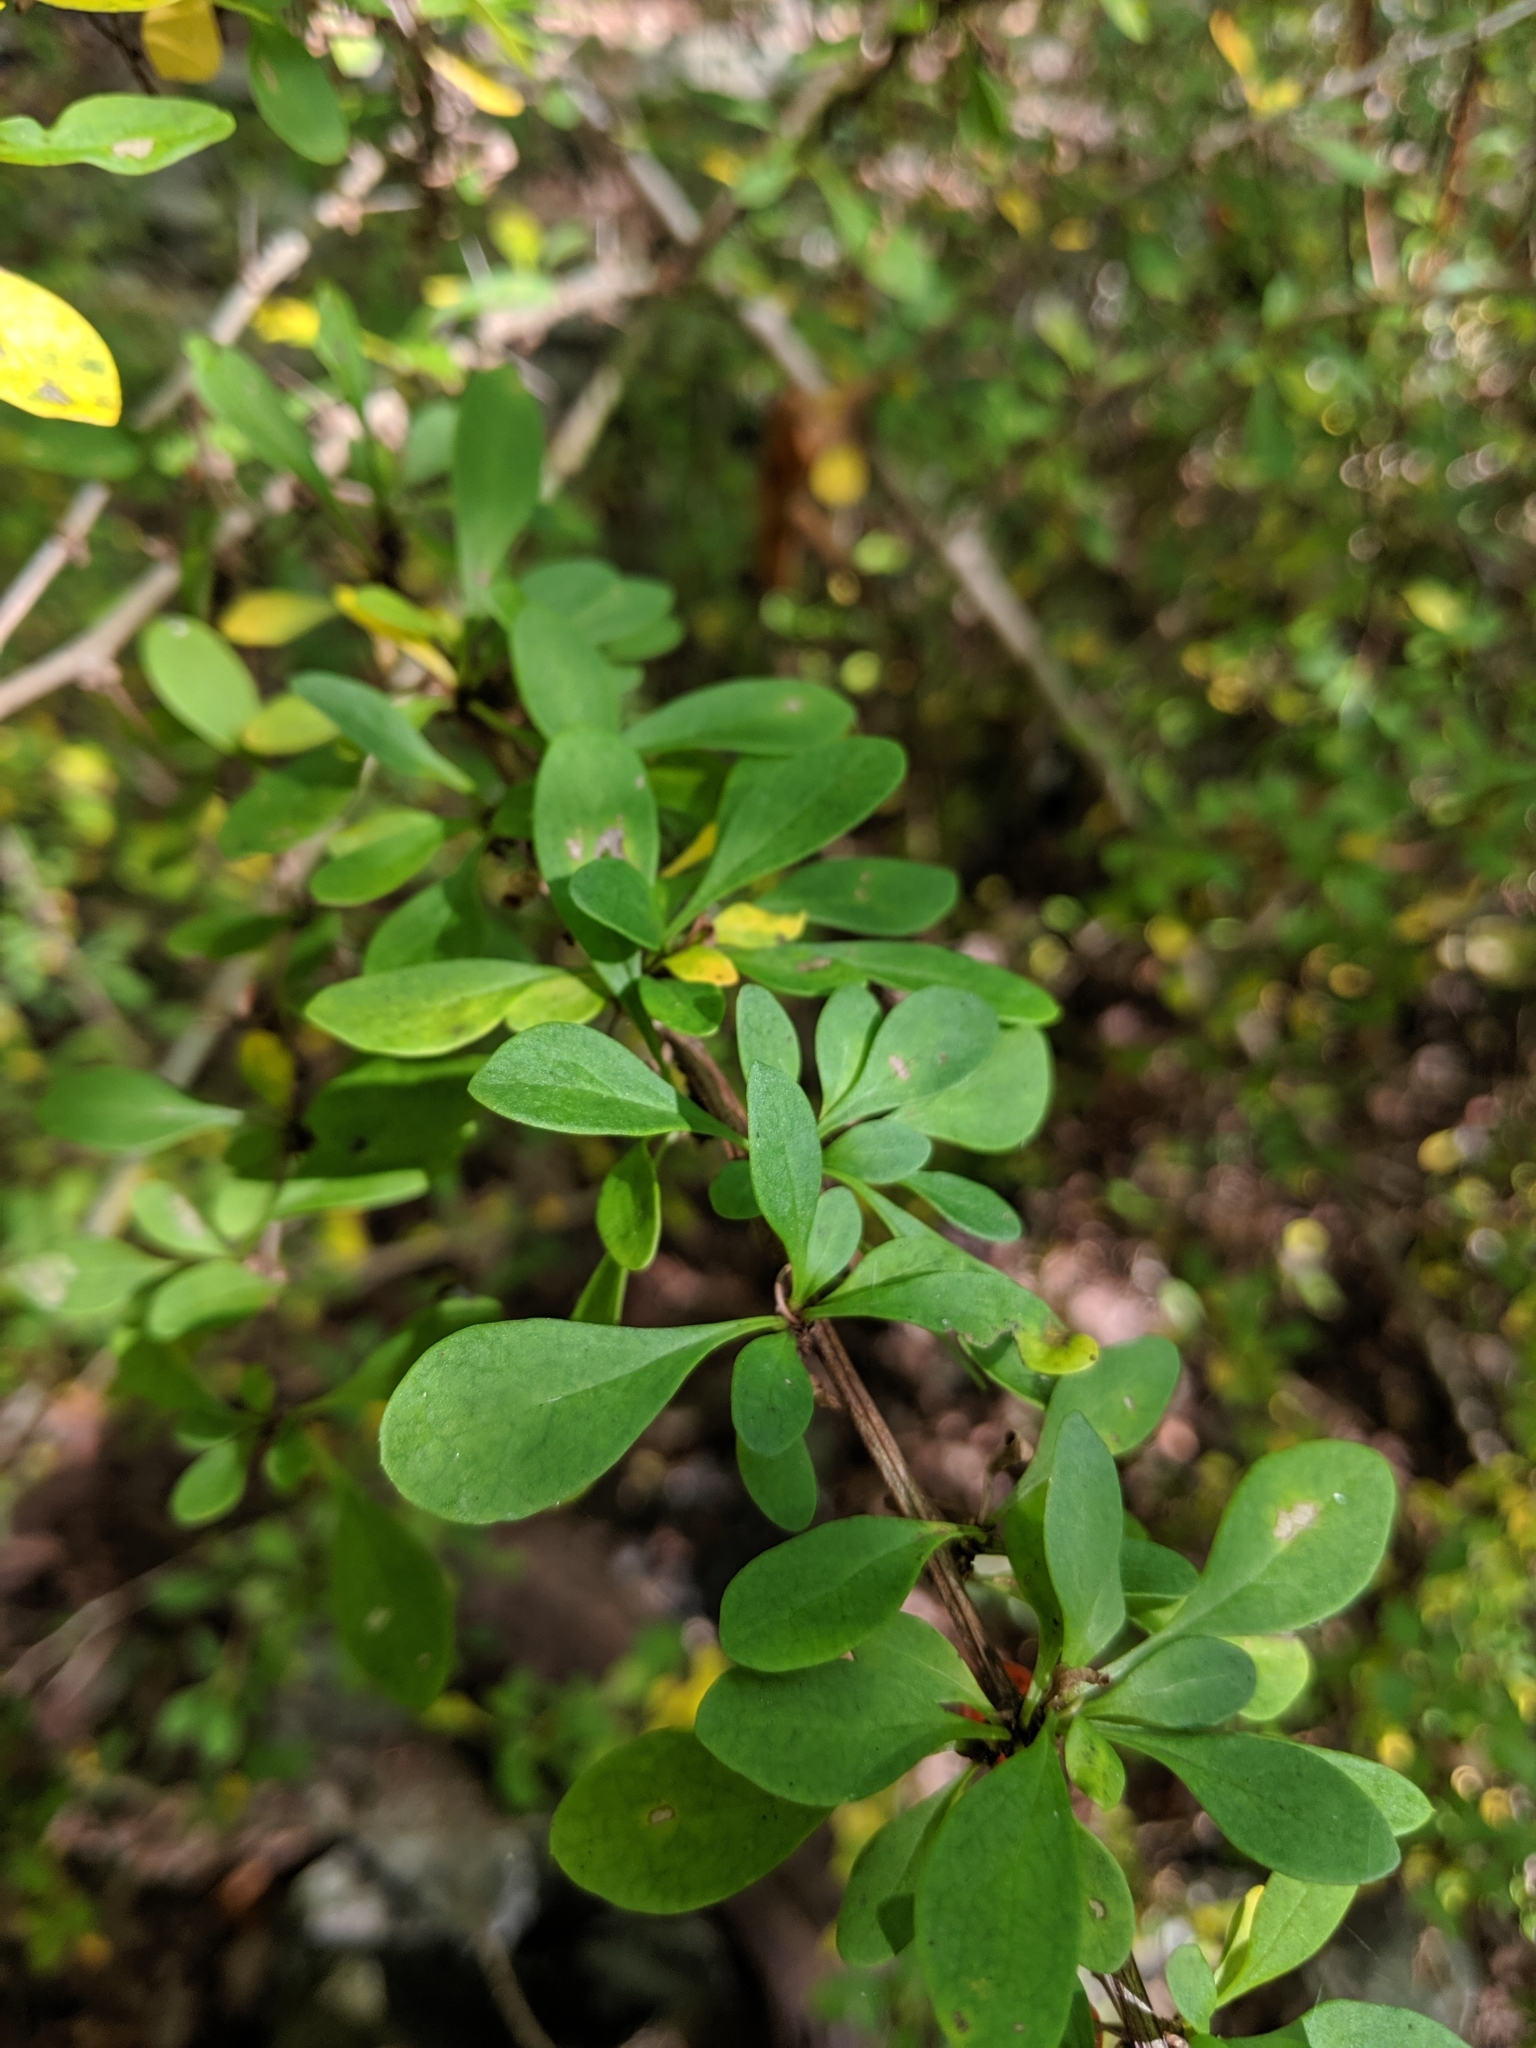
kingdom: Plantae
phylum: Tracheophyta
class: Magnoliopsida
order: Ranunculales
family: Berberidaceae
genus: Berberis
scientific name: Berberis thunbergii
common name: Japanese barberry
